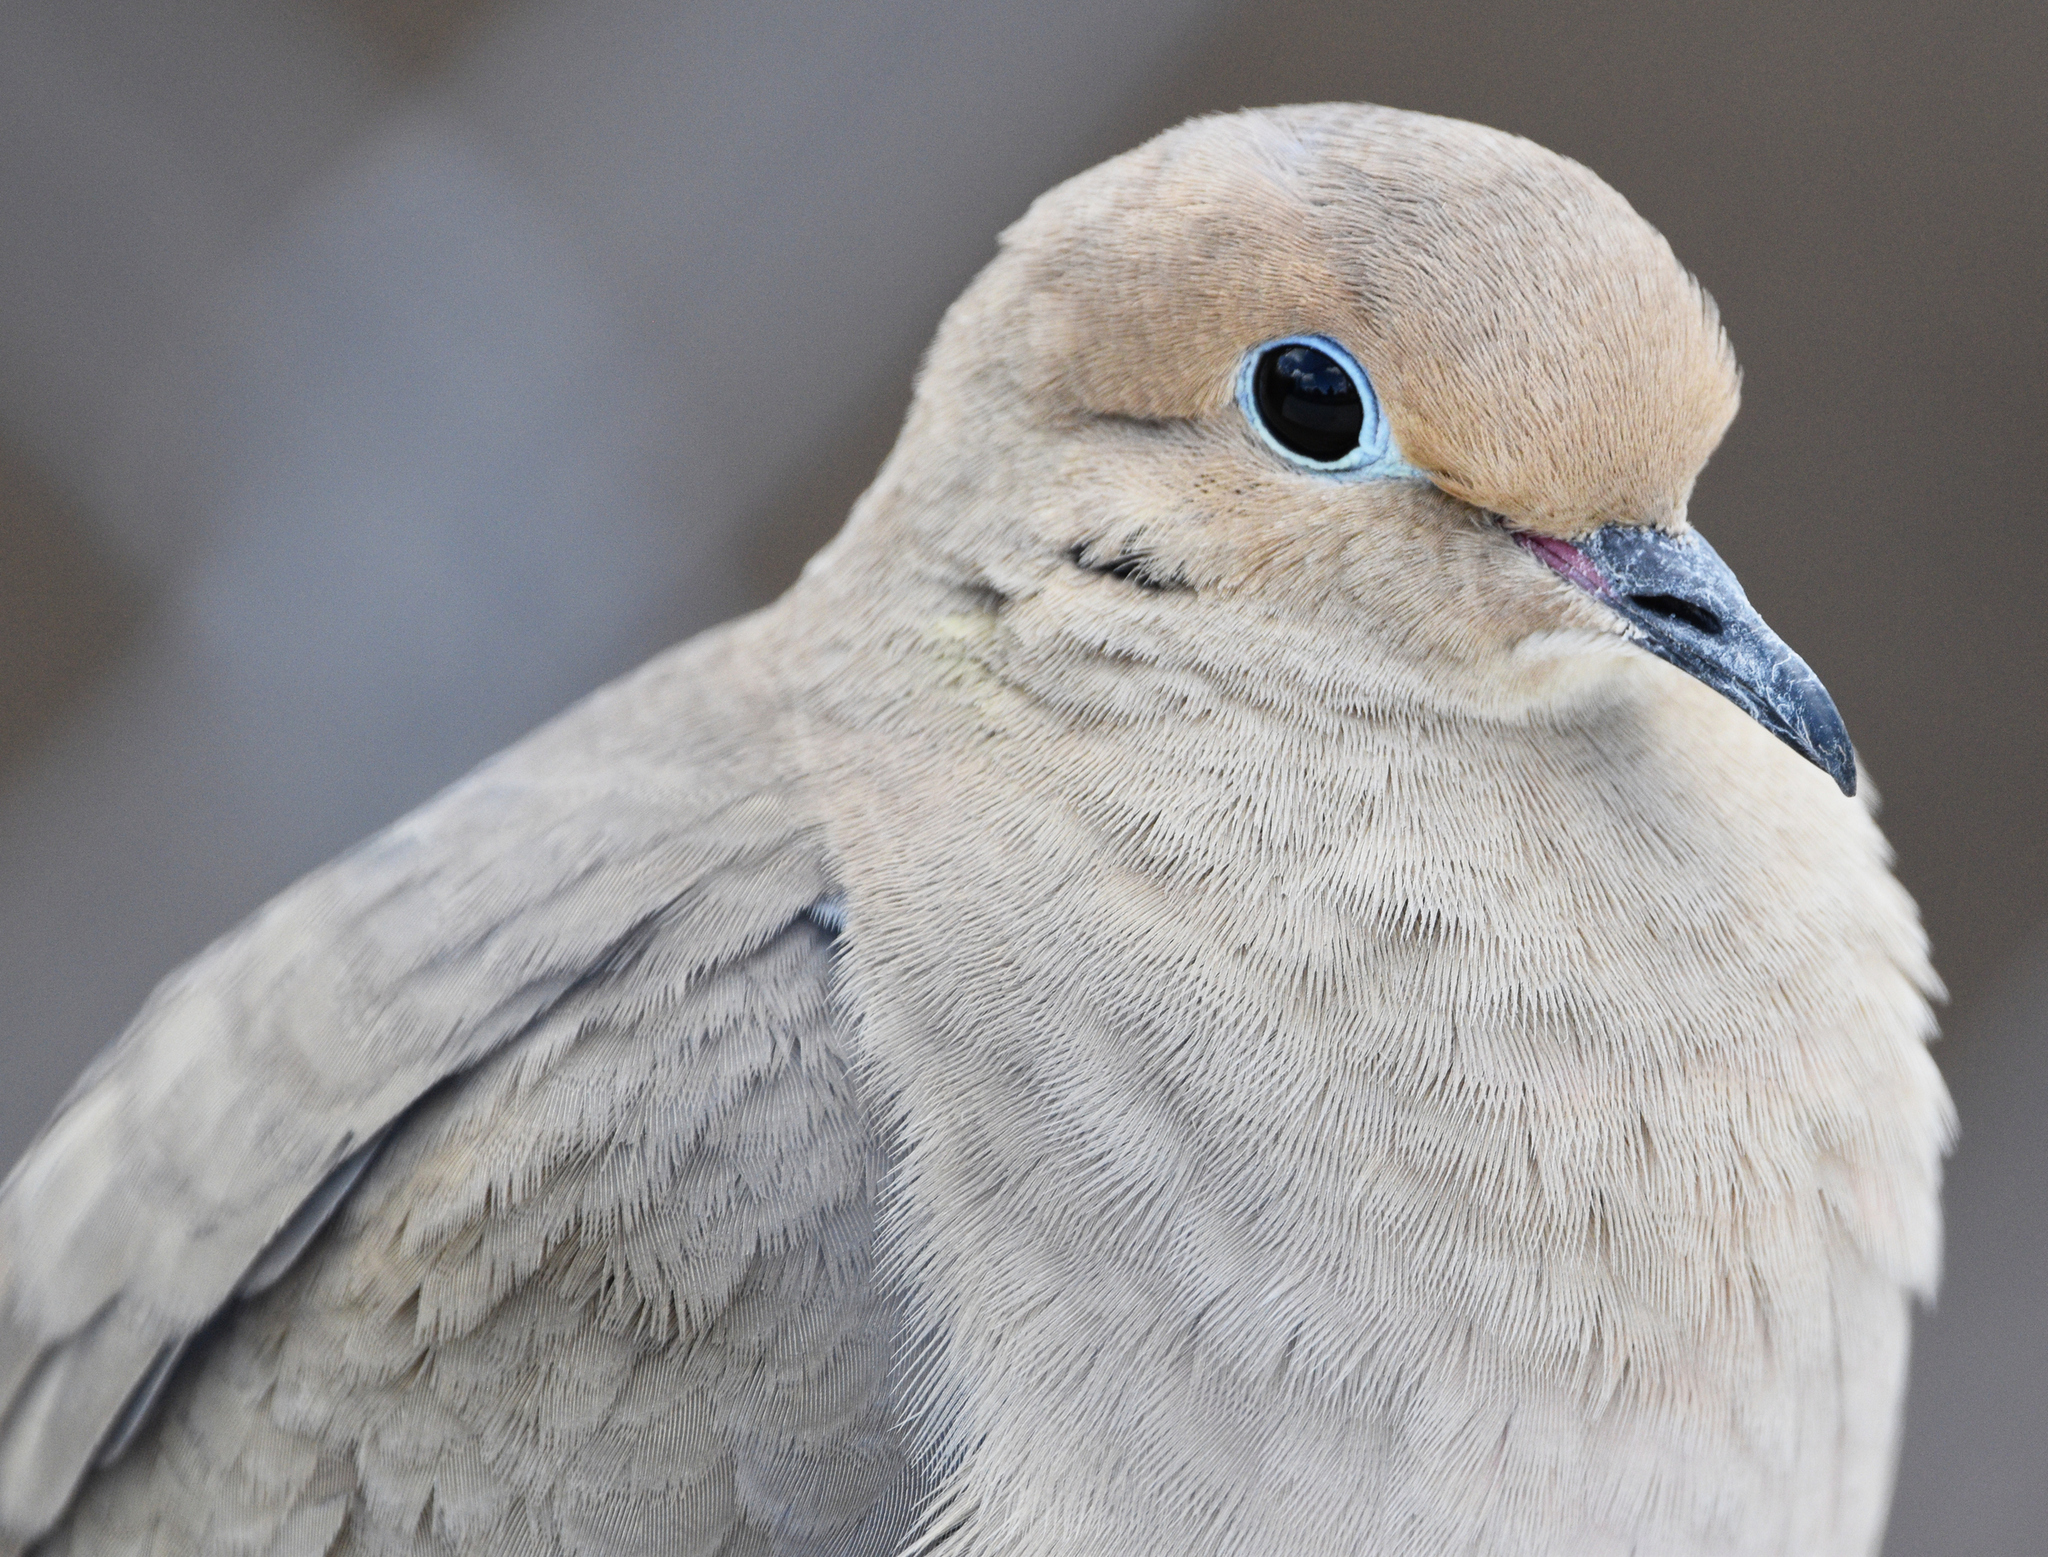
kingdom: Animalia
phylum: Chordata
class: Aves
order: Columbiformes
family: Columbidae
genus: Zenaida
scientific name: Zenaida macroura
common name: Mourning dove
